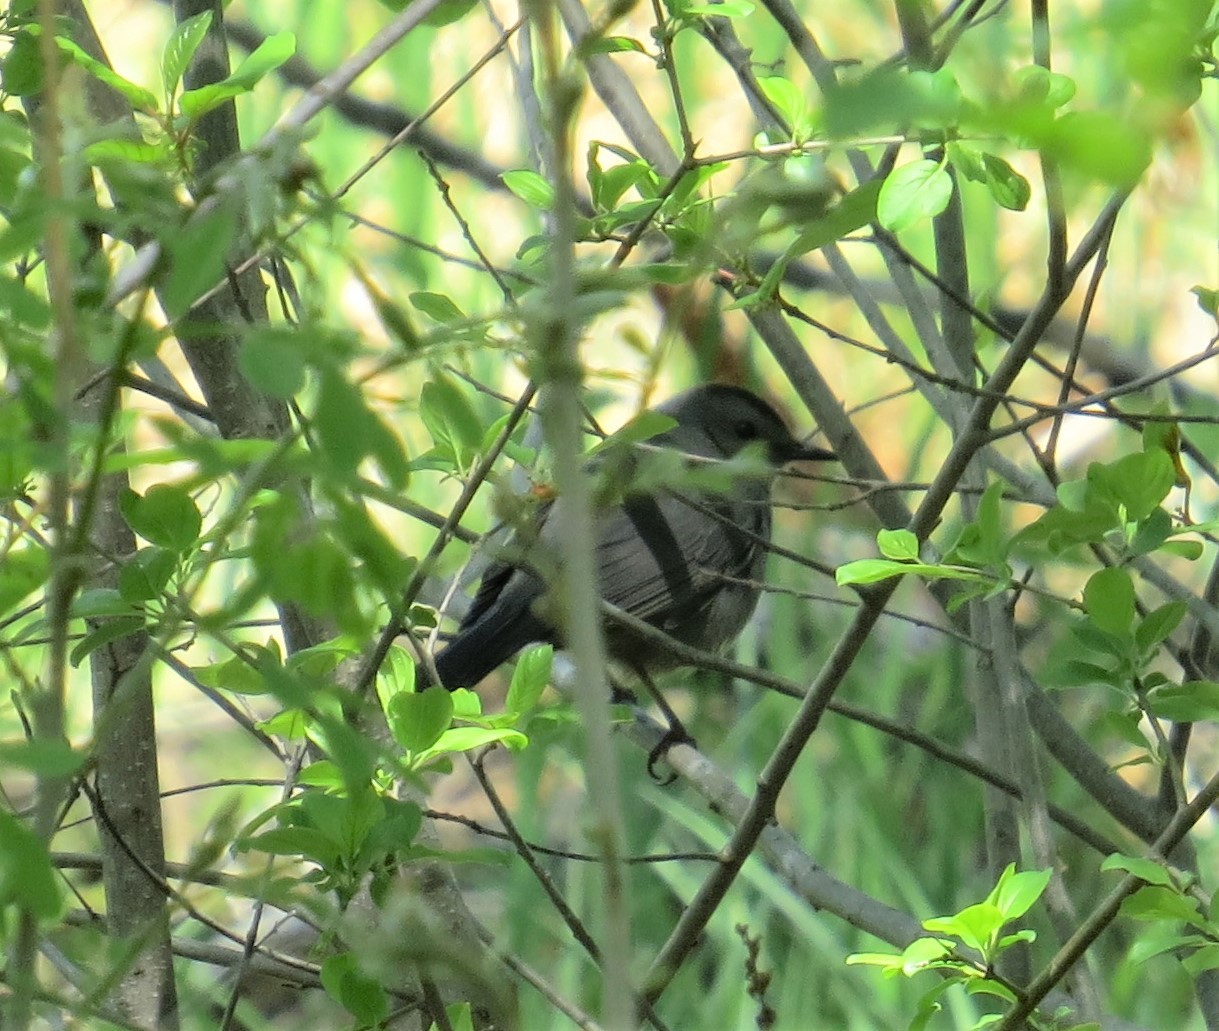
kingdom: Animalia
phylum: Chordata
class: Aves
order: Passeriformes
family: Mimidae
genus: Dumetella
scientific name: Dumetella carolinensis
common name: Gray catbird
